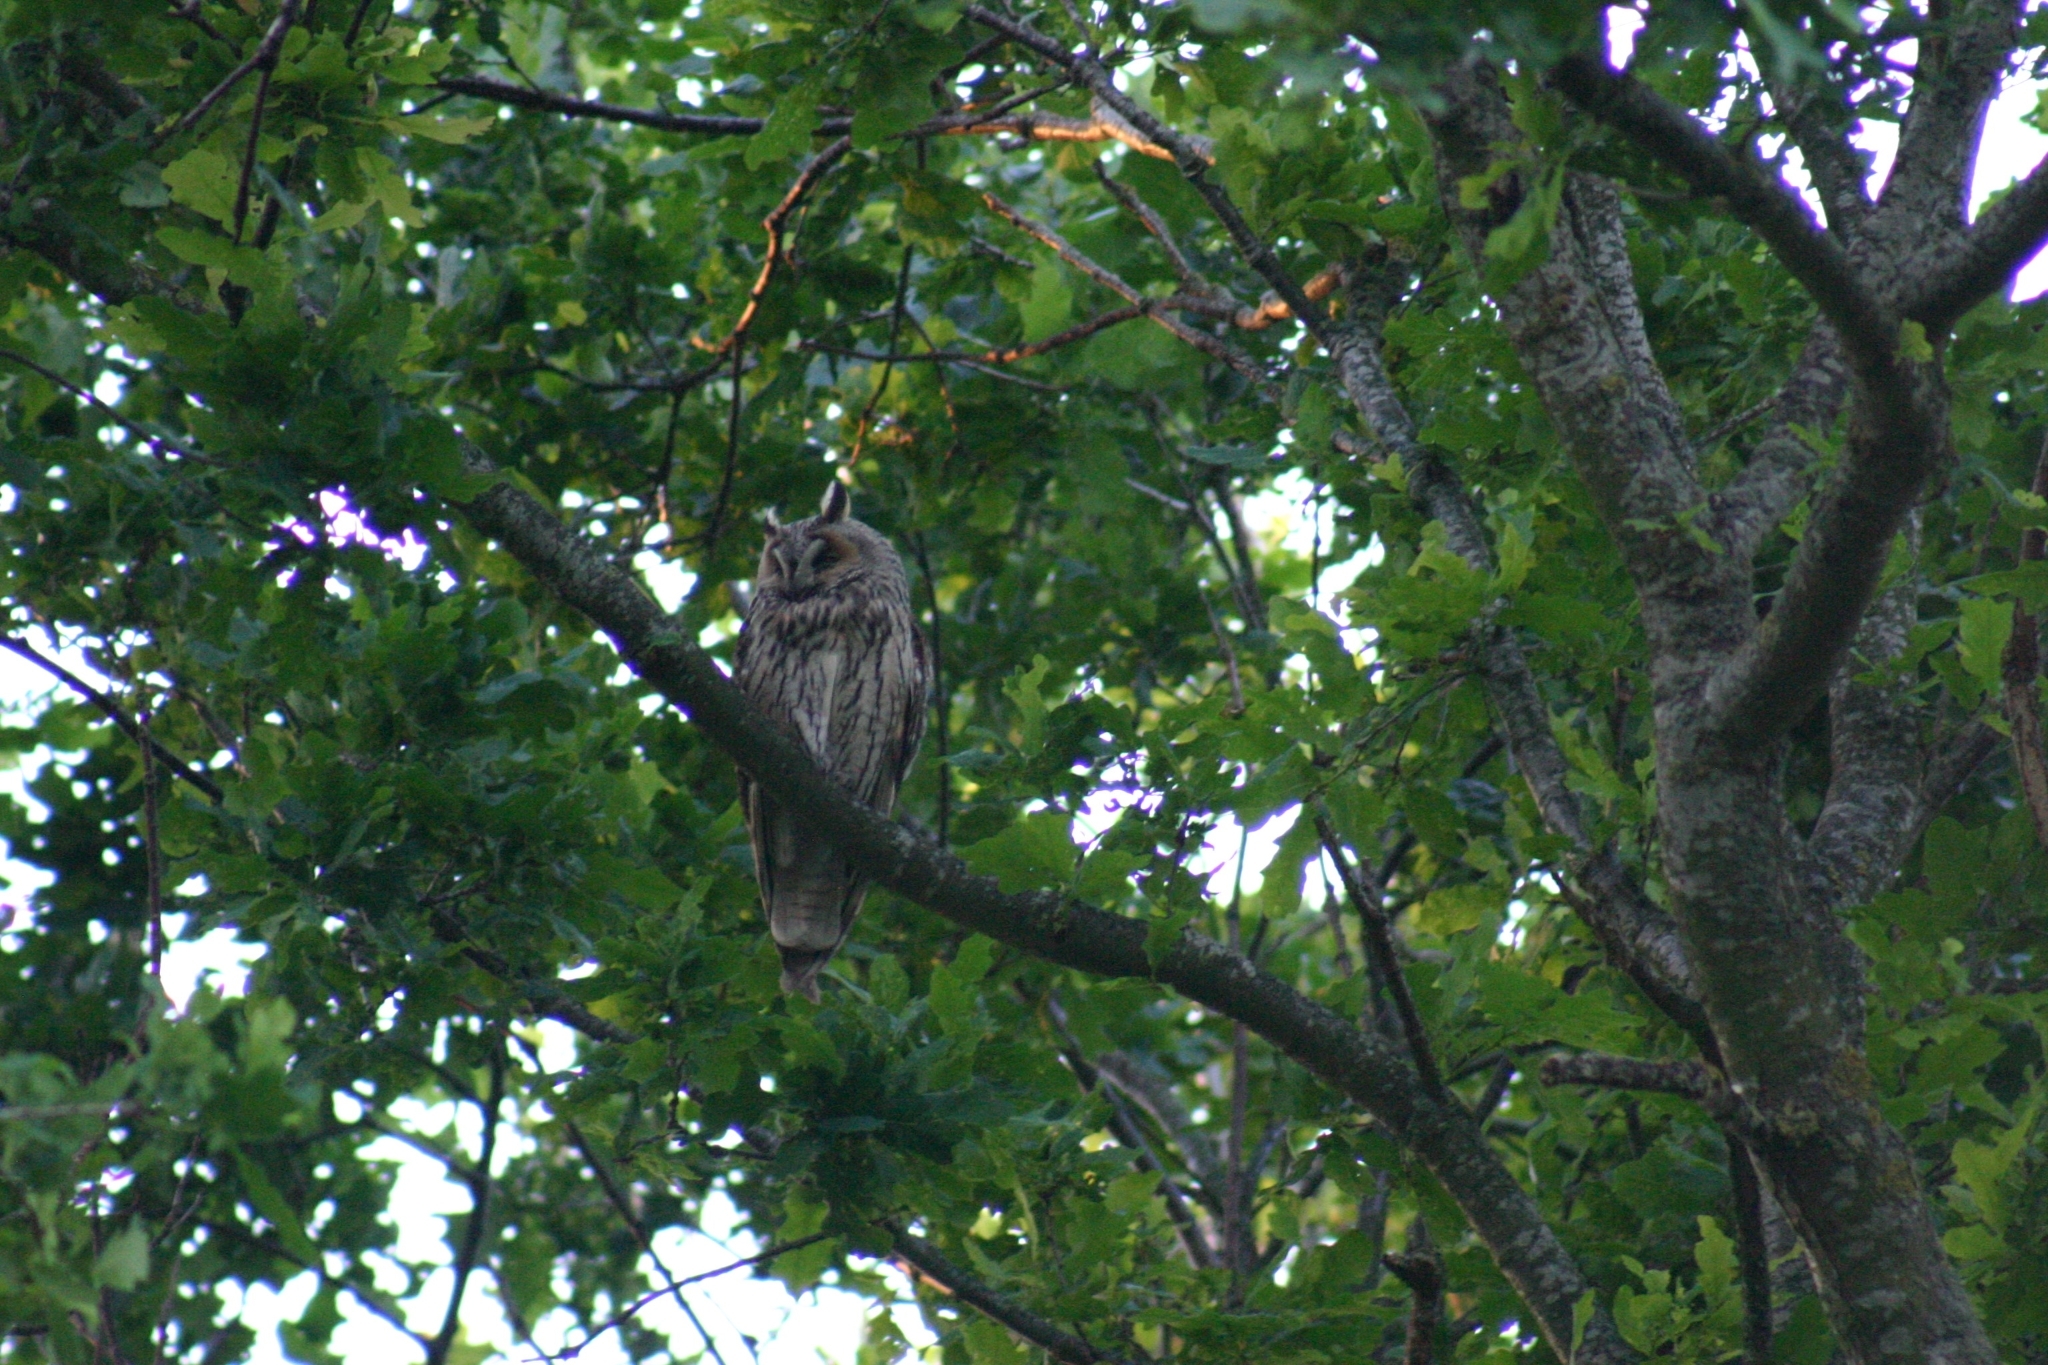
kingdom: Animalia
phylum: Chordata
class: Aves
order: Strigiformes
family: Strigidae
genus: Asio
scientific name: Asio otus
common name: Long-eared owl
